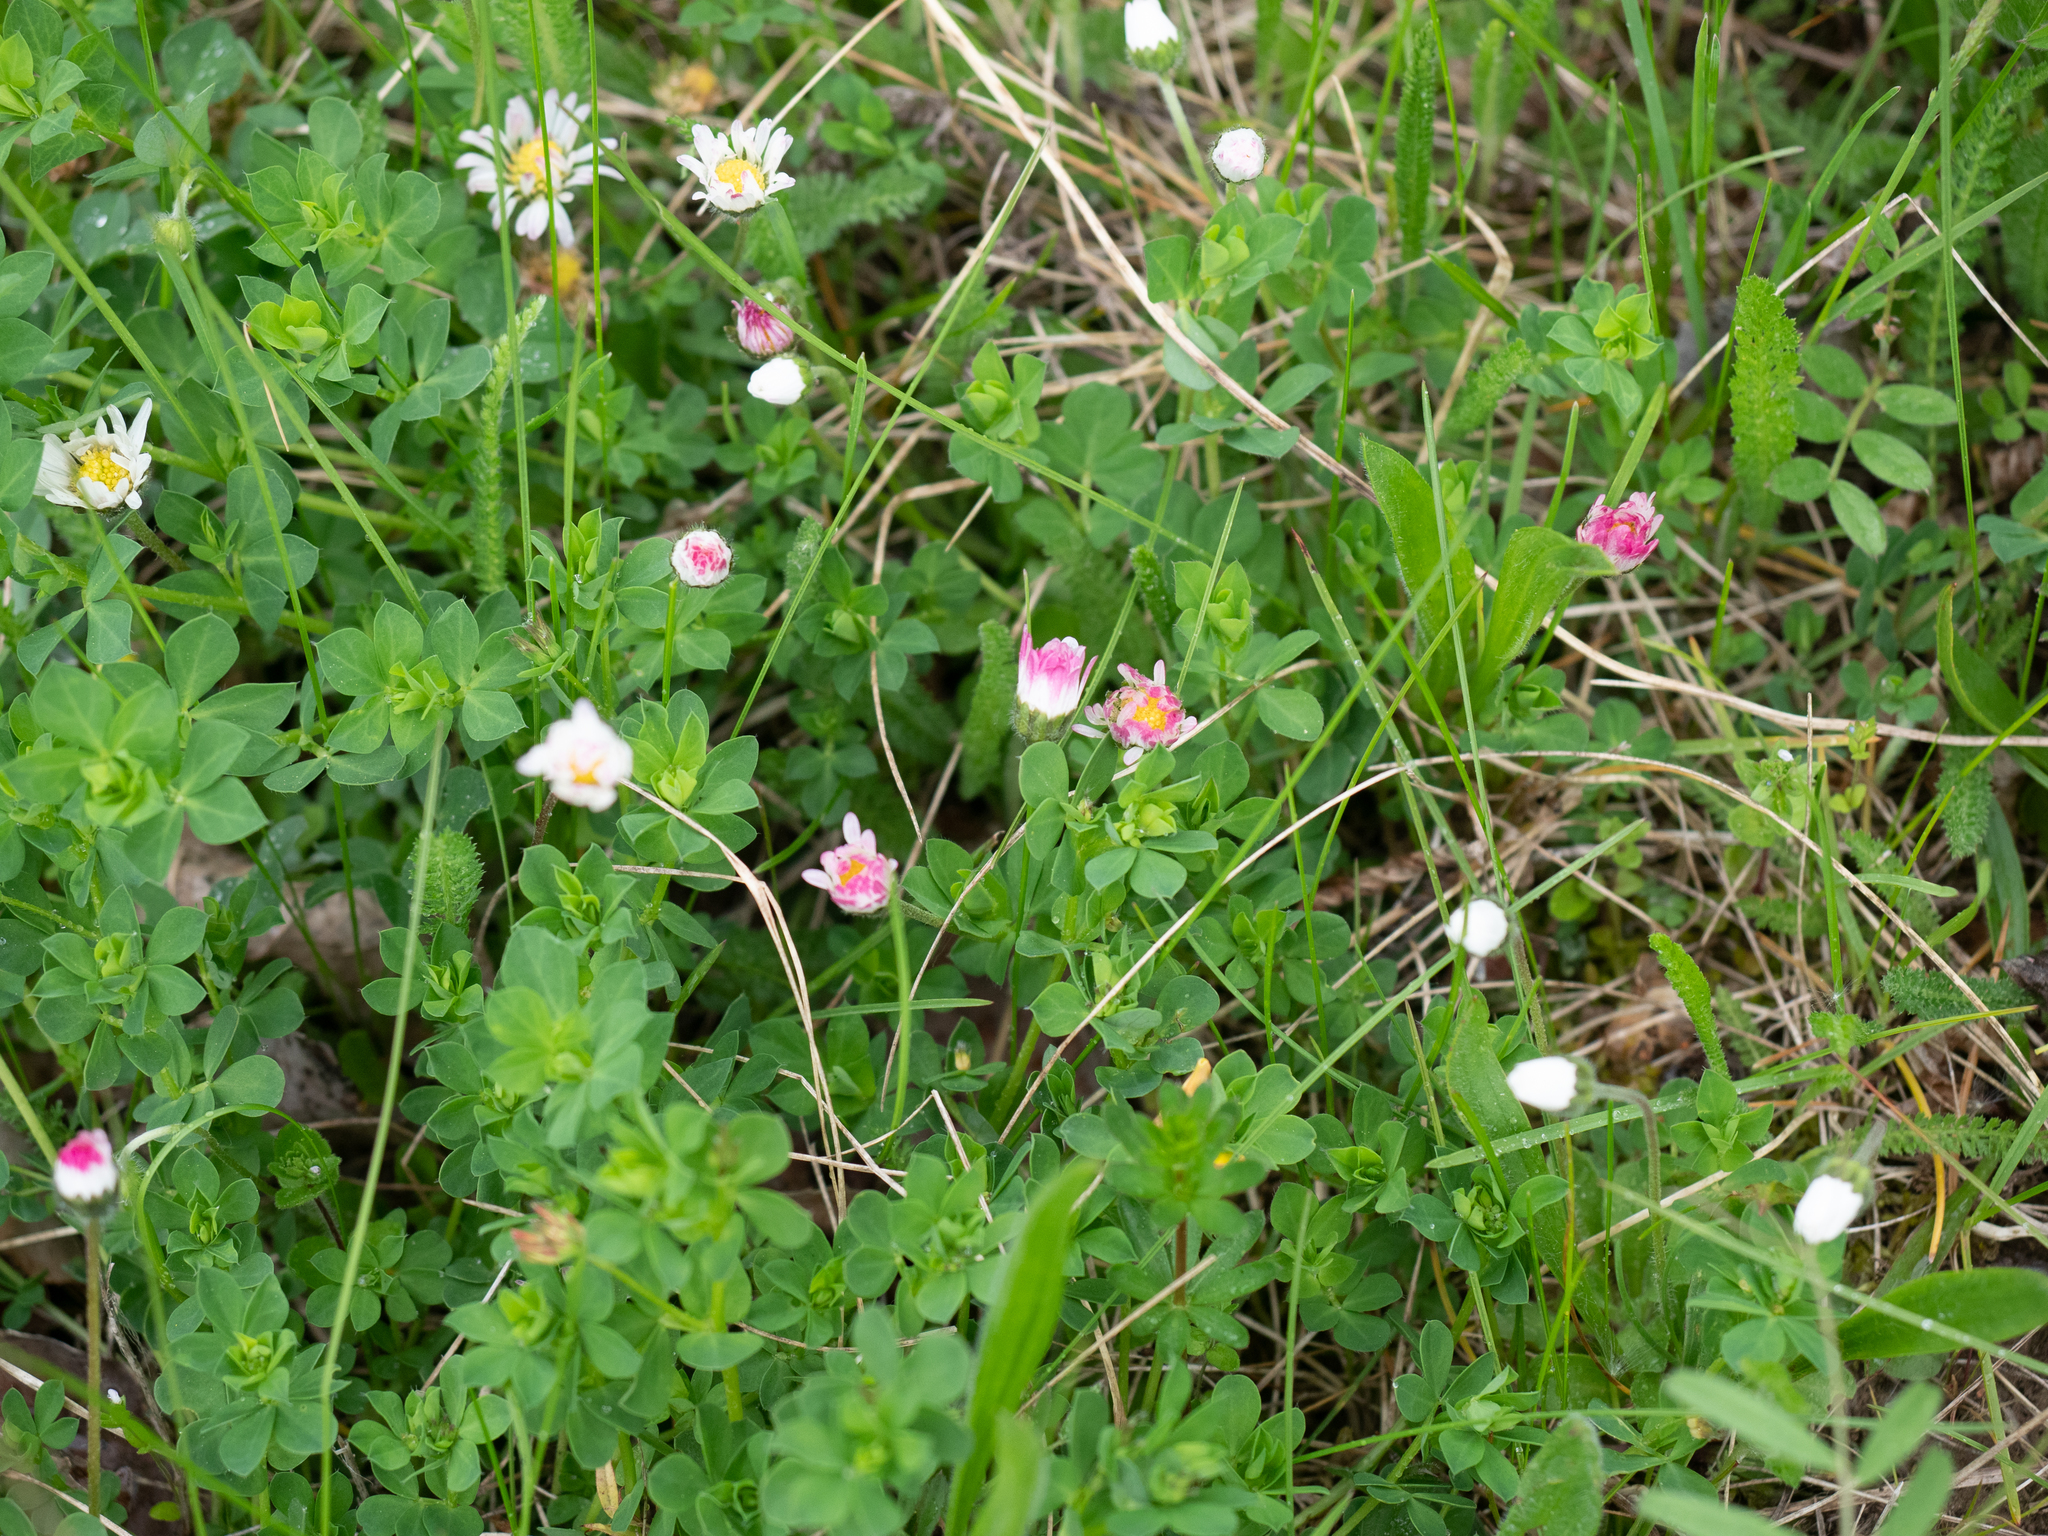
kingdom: Plantae
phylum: Tracheophyta
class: Magnoliopsida
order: Asterales
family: Asteraceae
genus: Bellis
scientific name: Bellis perennis
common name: Lawndaisy
